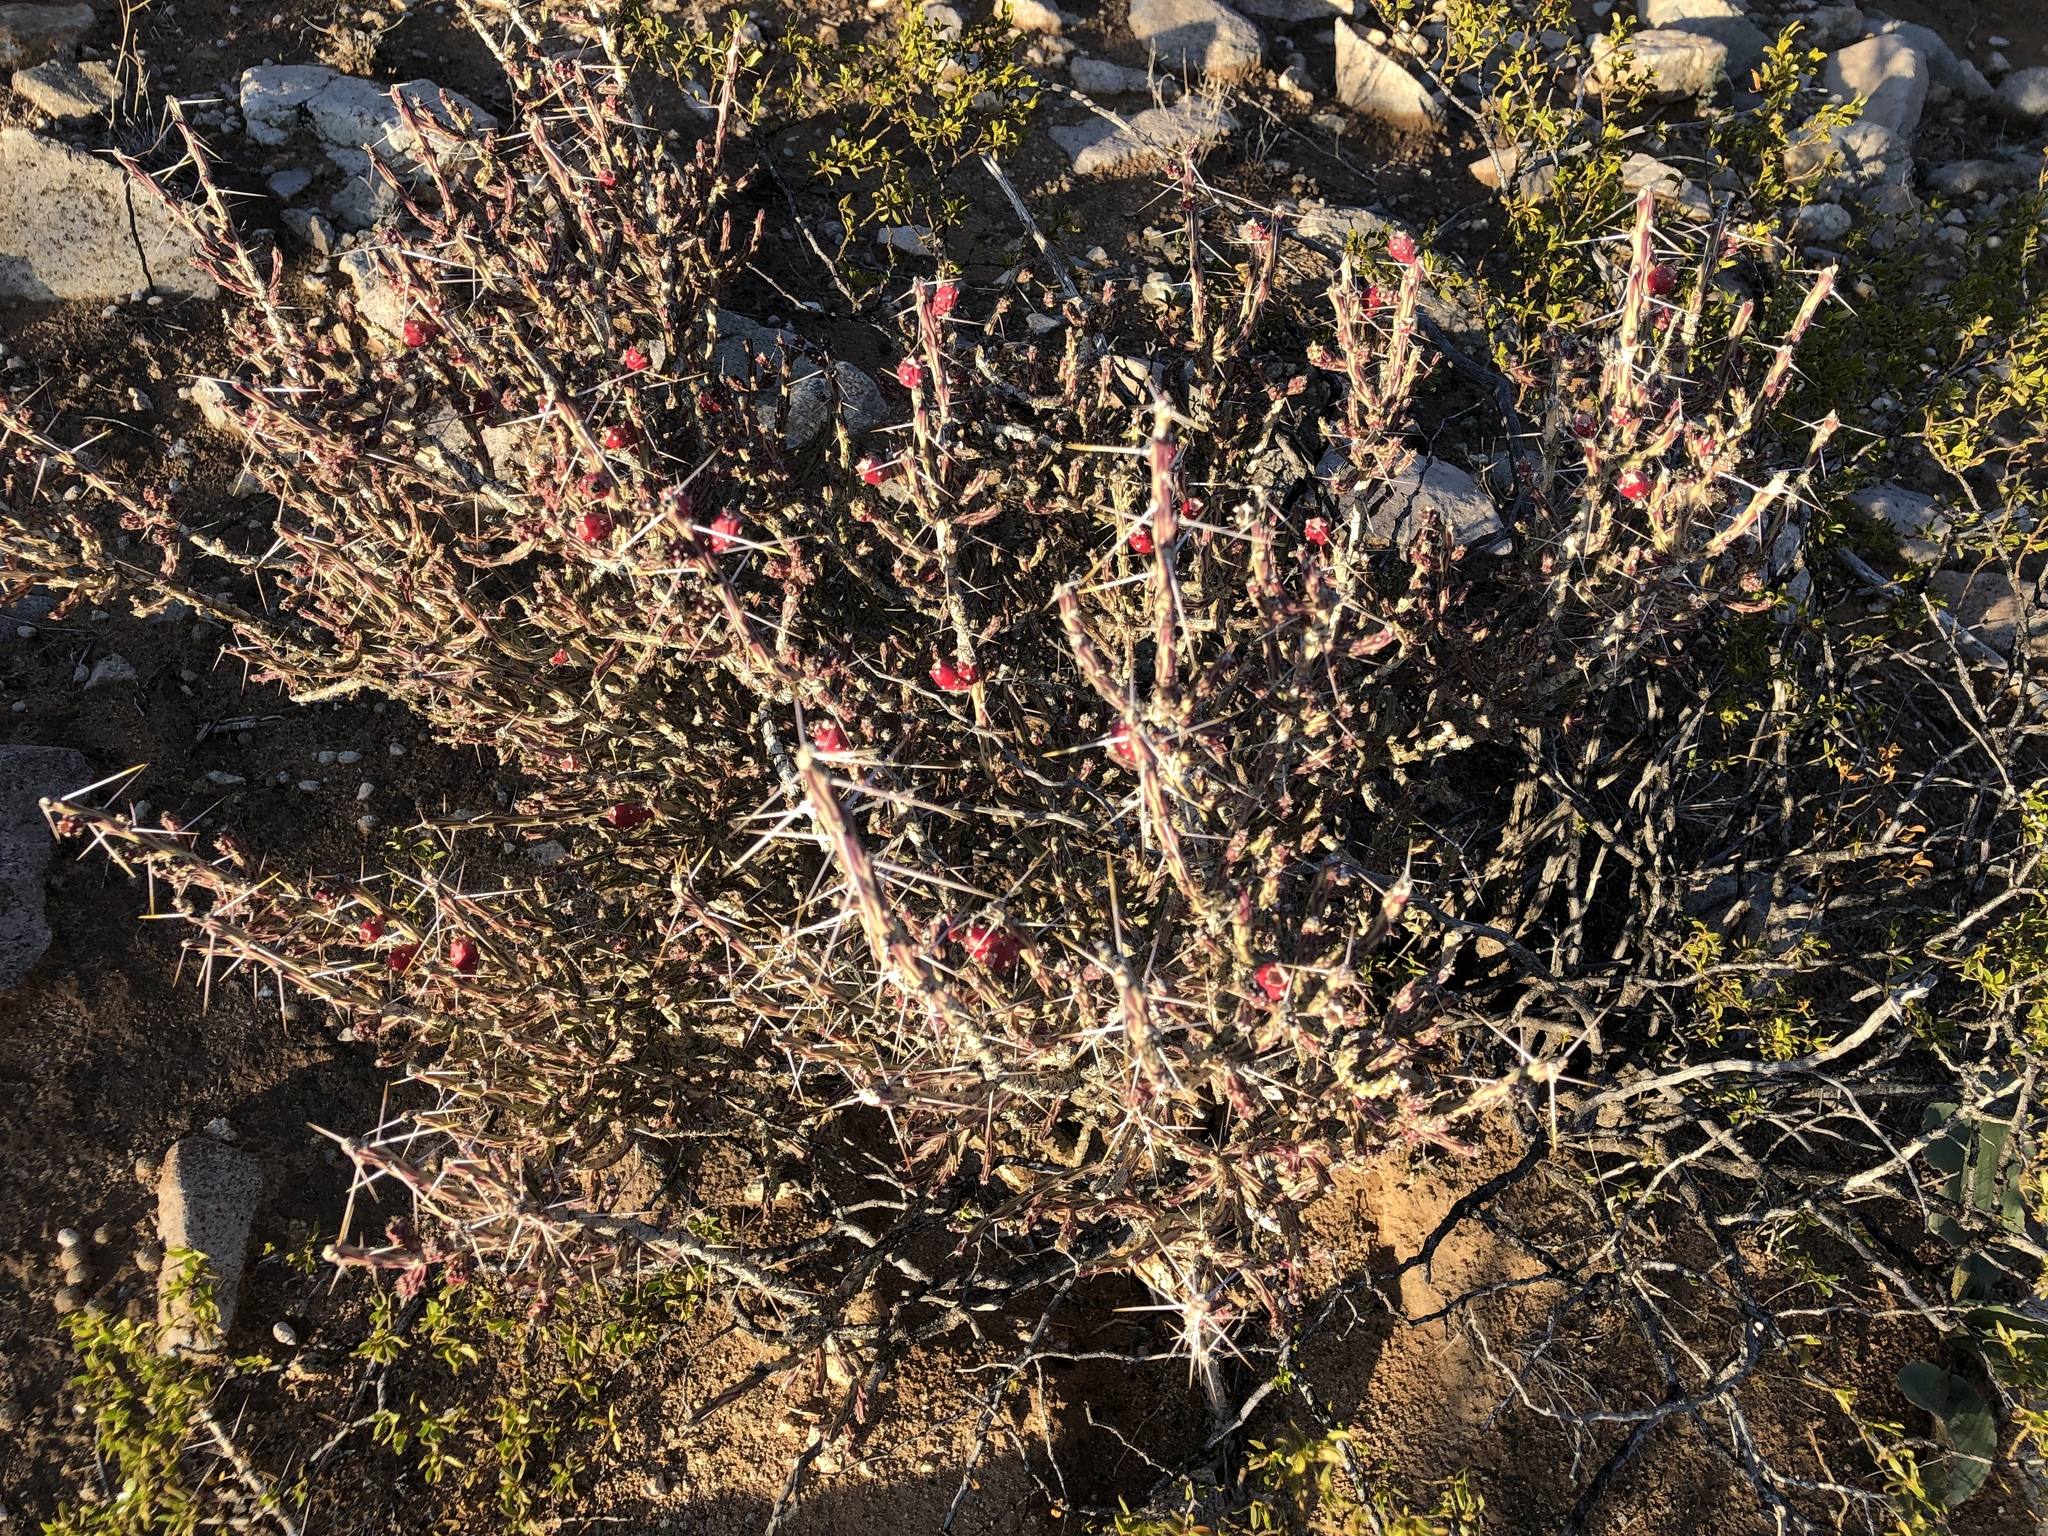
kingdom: Plantae
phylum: Tracheophyta
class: Magnoliopsida
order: Caryophyllales
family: Cactaceae
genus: Cylindropuntia
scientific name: Cylindropuntia leptocaulis
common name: Christmas cactus
